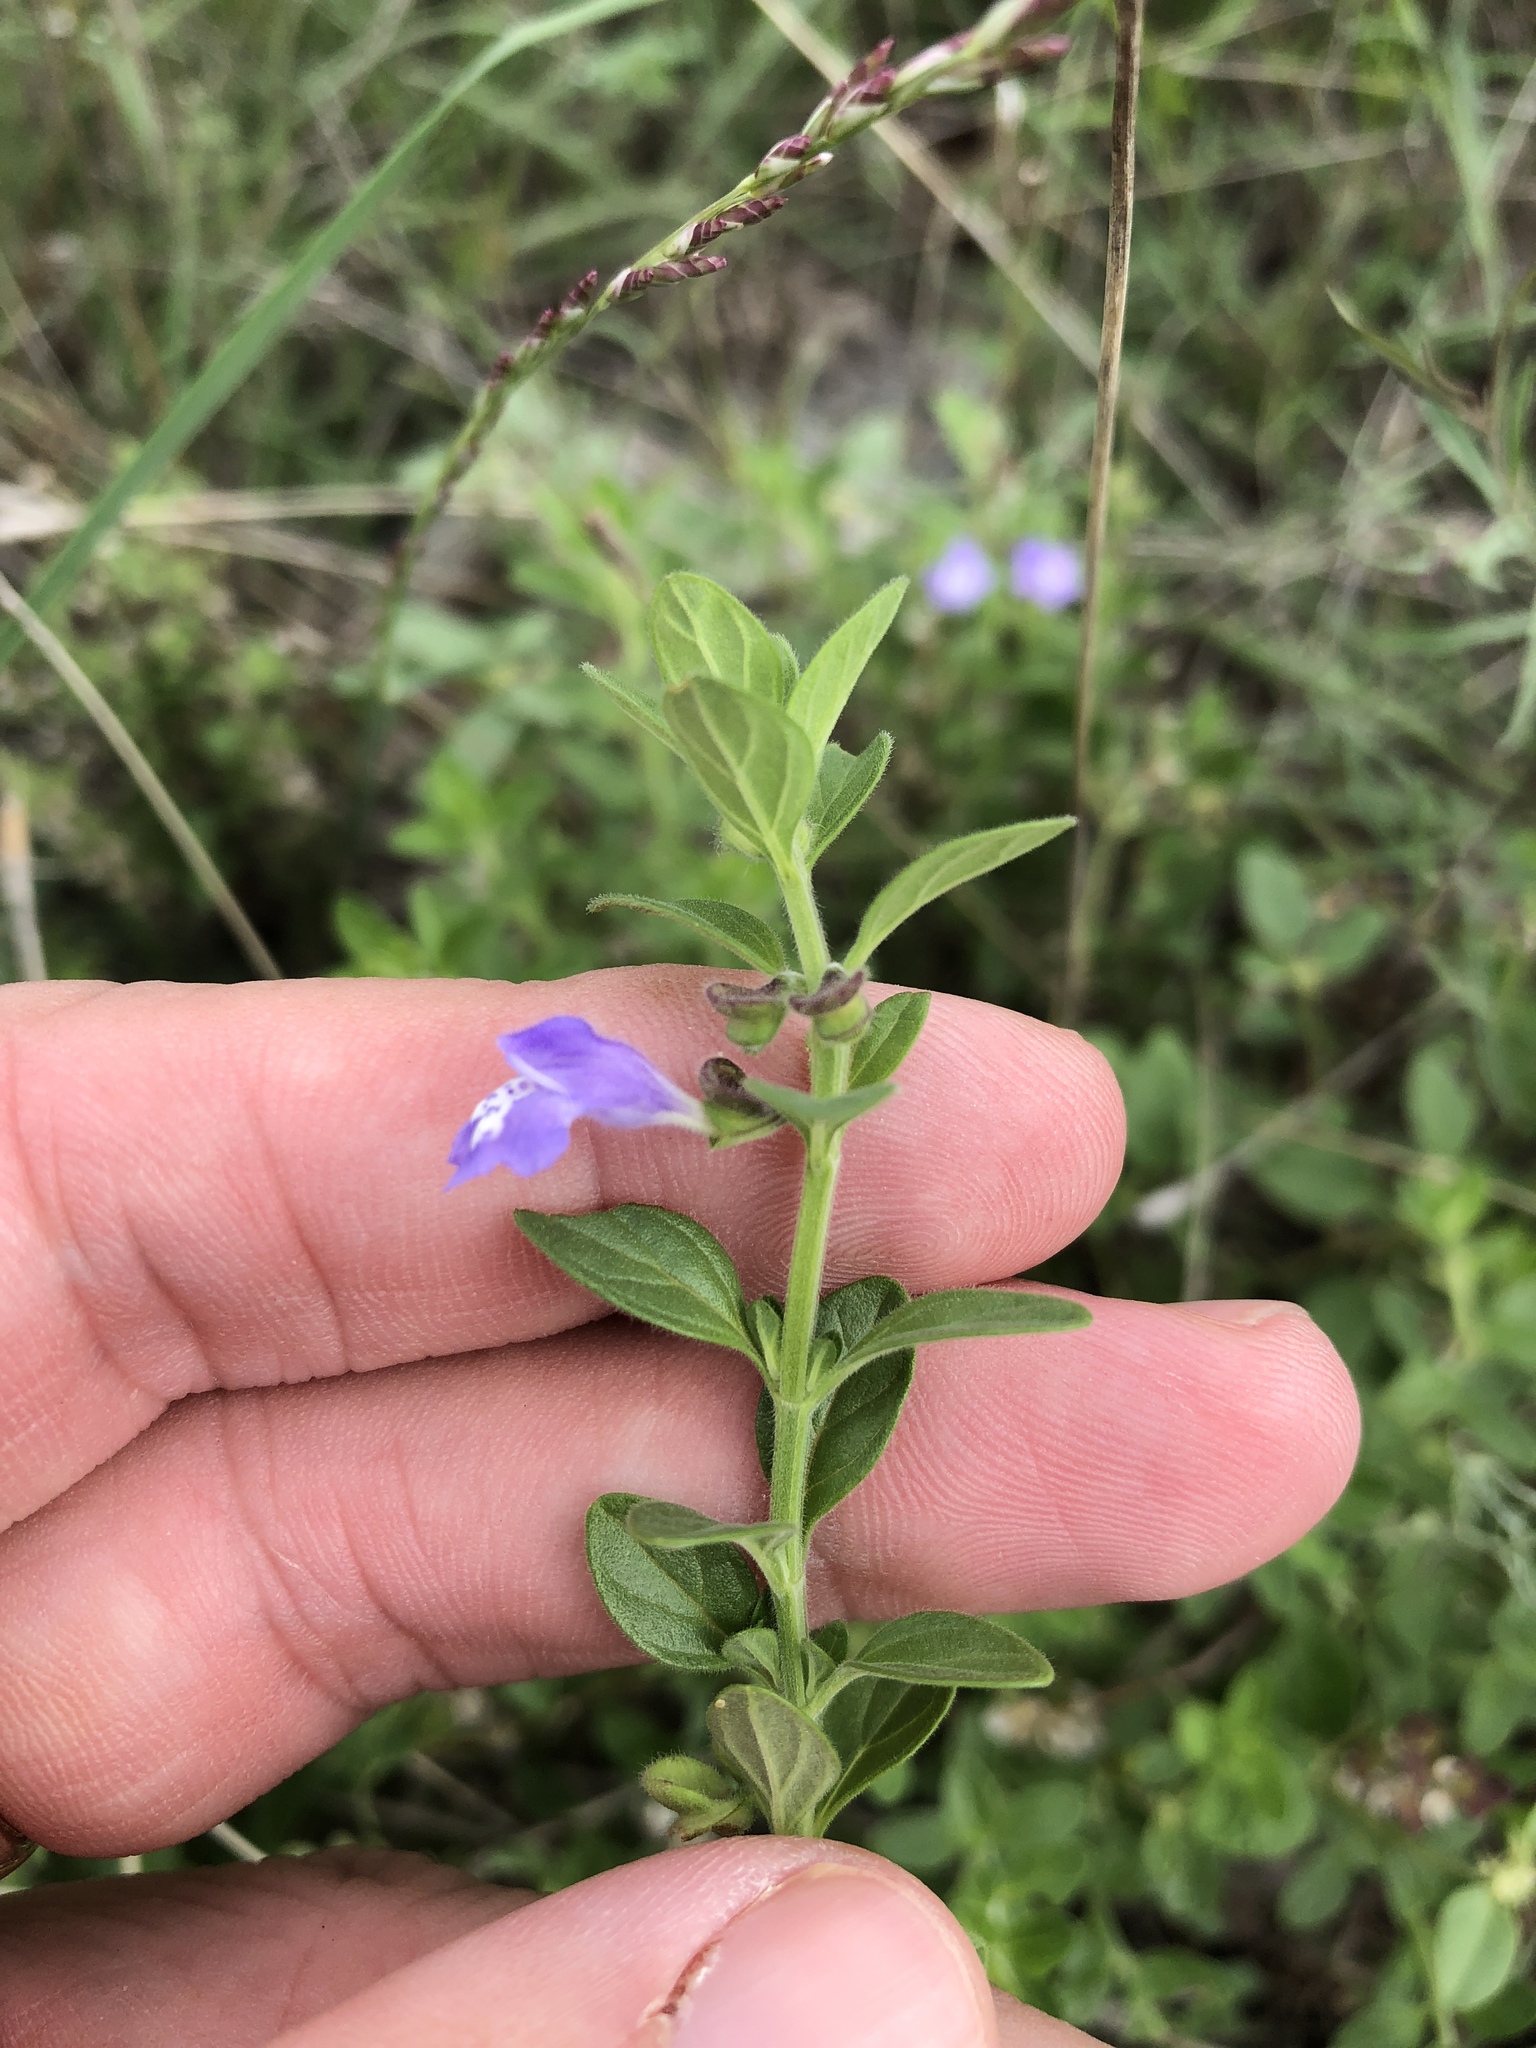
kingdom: Plantae
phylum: Tracheophyta
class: Magnoliopsida
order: Lamiales
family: Lamiaceae
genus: Scutellaria
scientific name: Scutellaria drummondii
